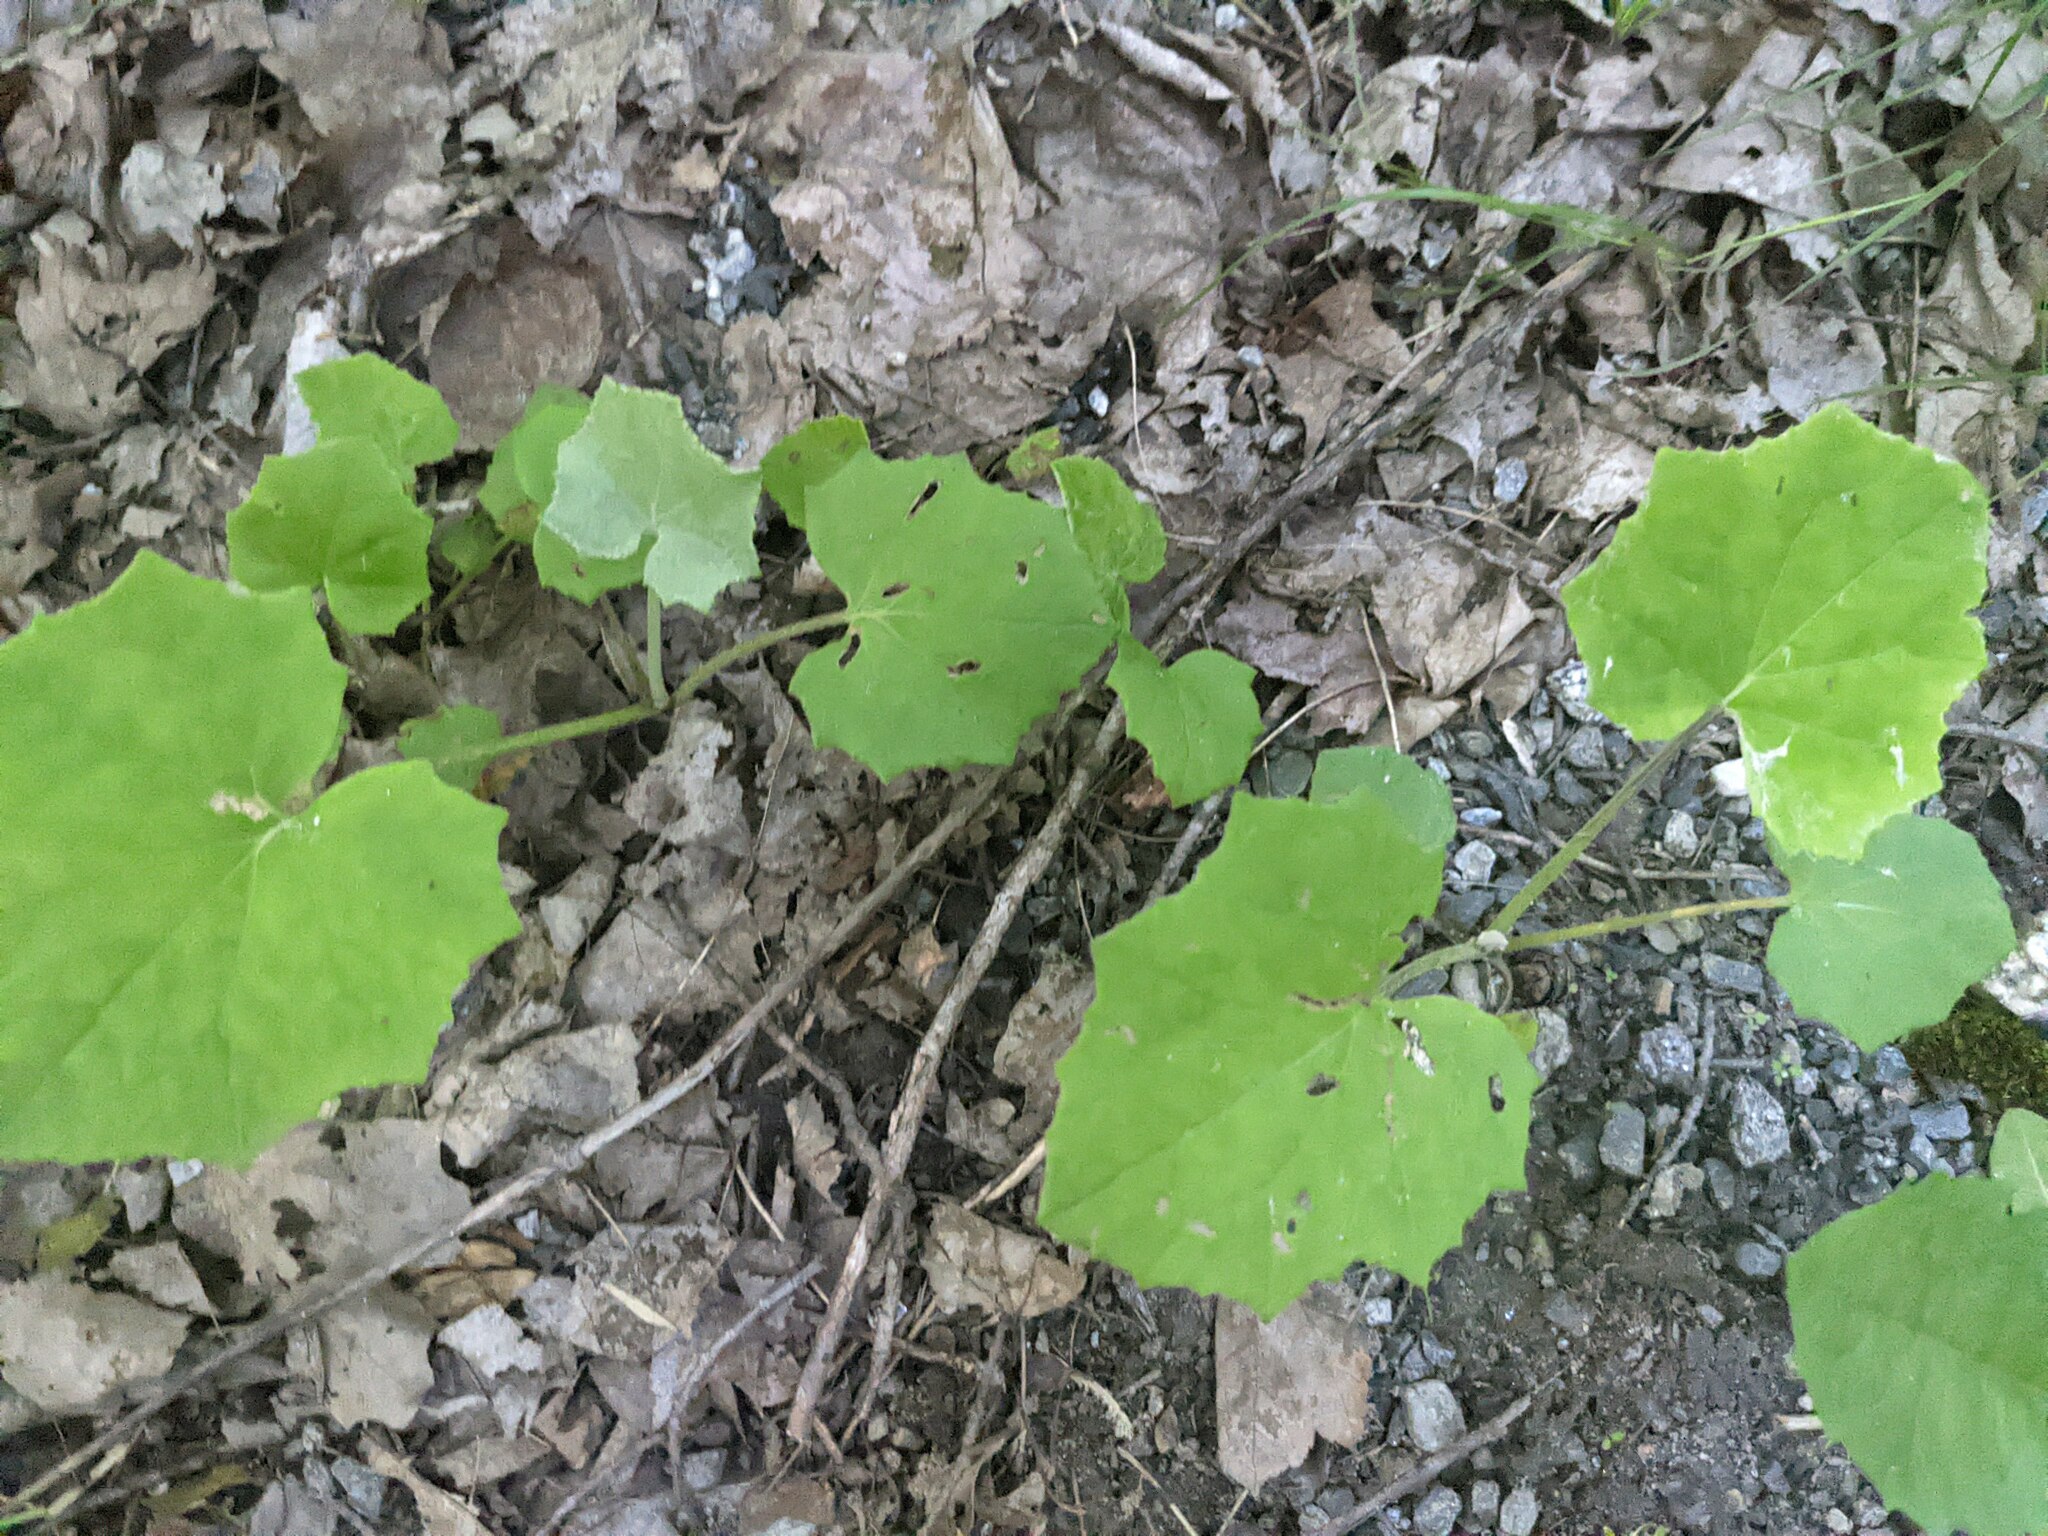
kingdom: Plantae
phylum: Tracheophyta
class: Magnoliopsida
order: Asterales
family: Asteraceae
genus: Tussilago
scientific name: Tussilago farfara
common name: Coltsfoot
